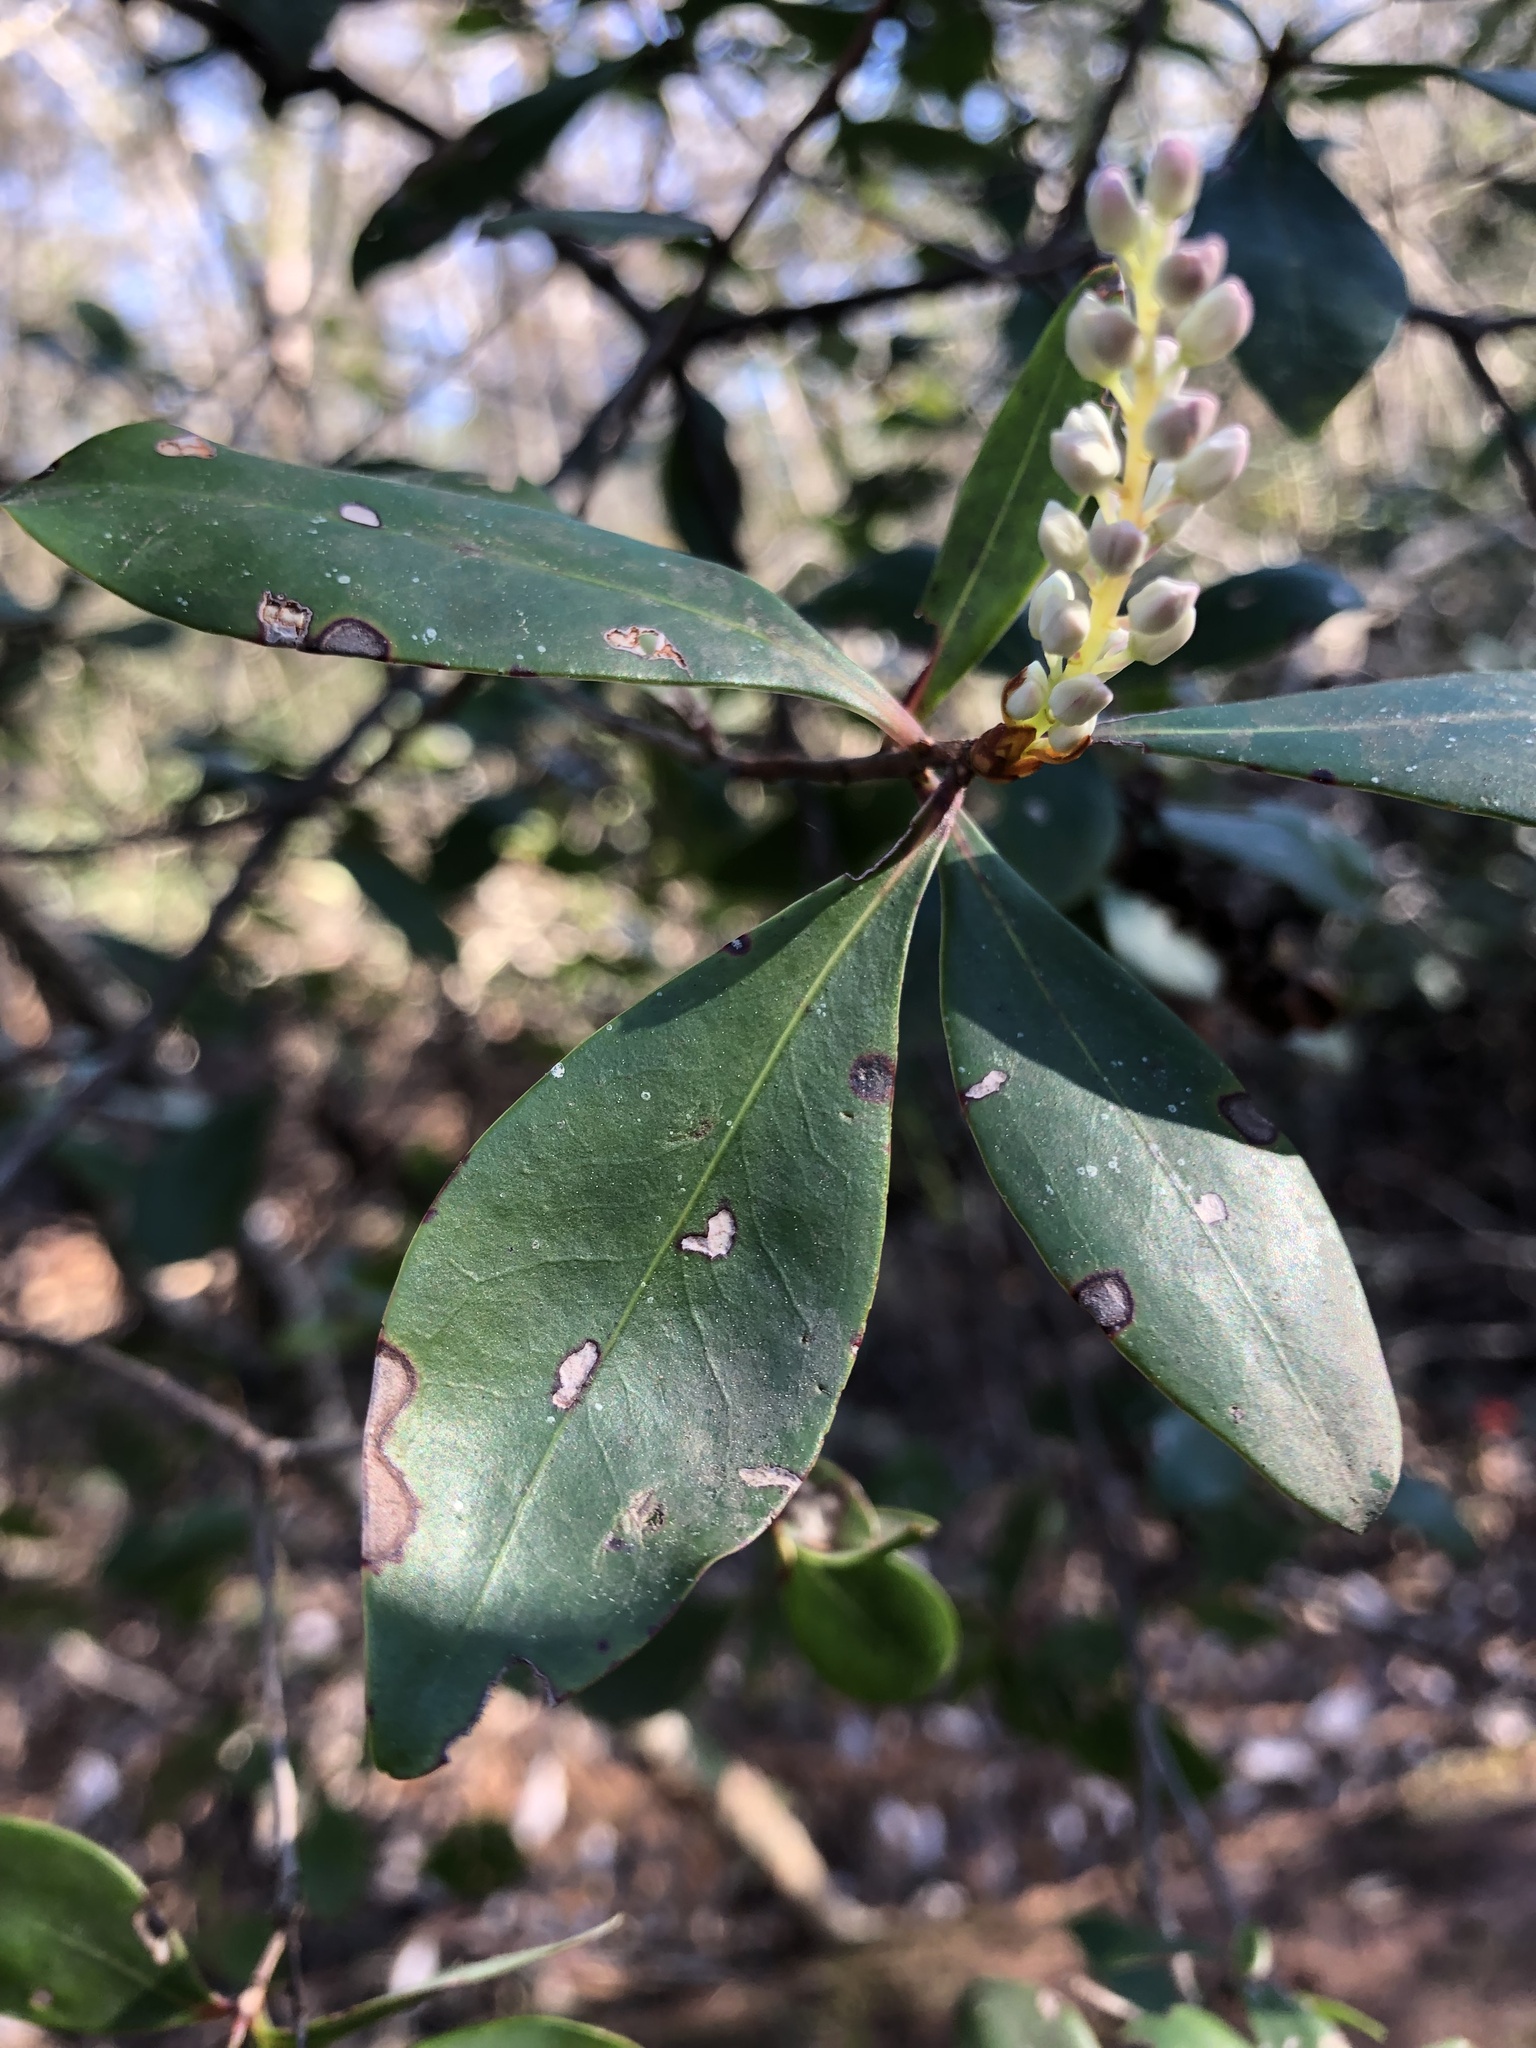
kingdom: Plantae
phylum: Tracheophyta
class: Magnoliopsida
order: Ericales
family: Cyrillaceae
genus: Cliftonia
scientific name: Cliftonia monophylla
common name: Titi
